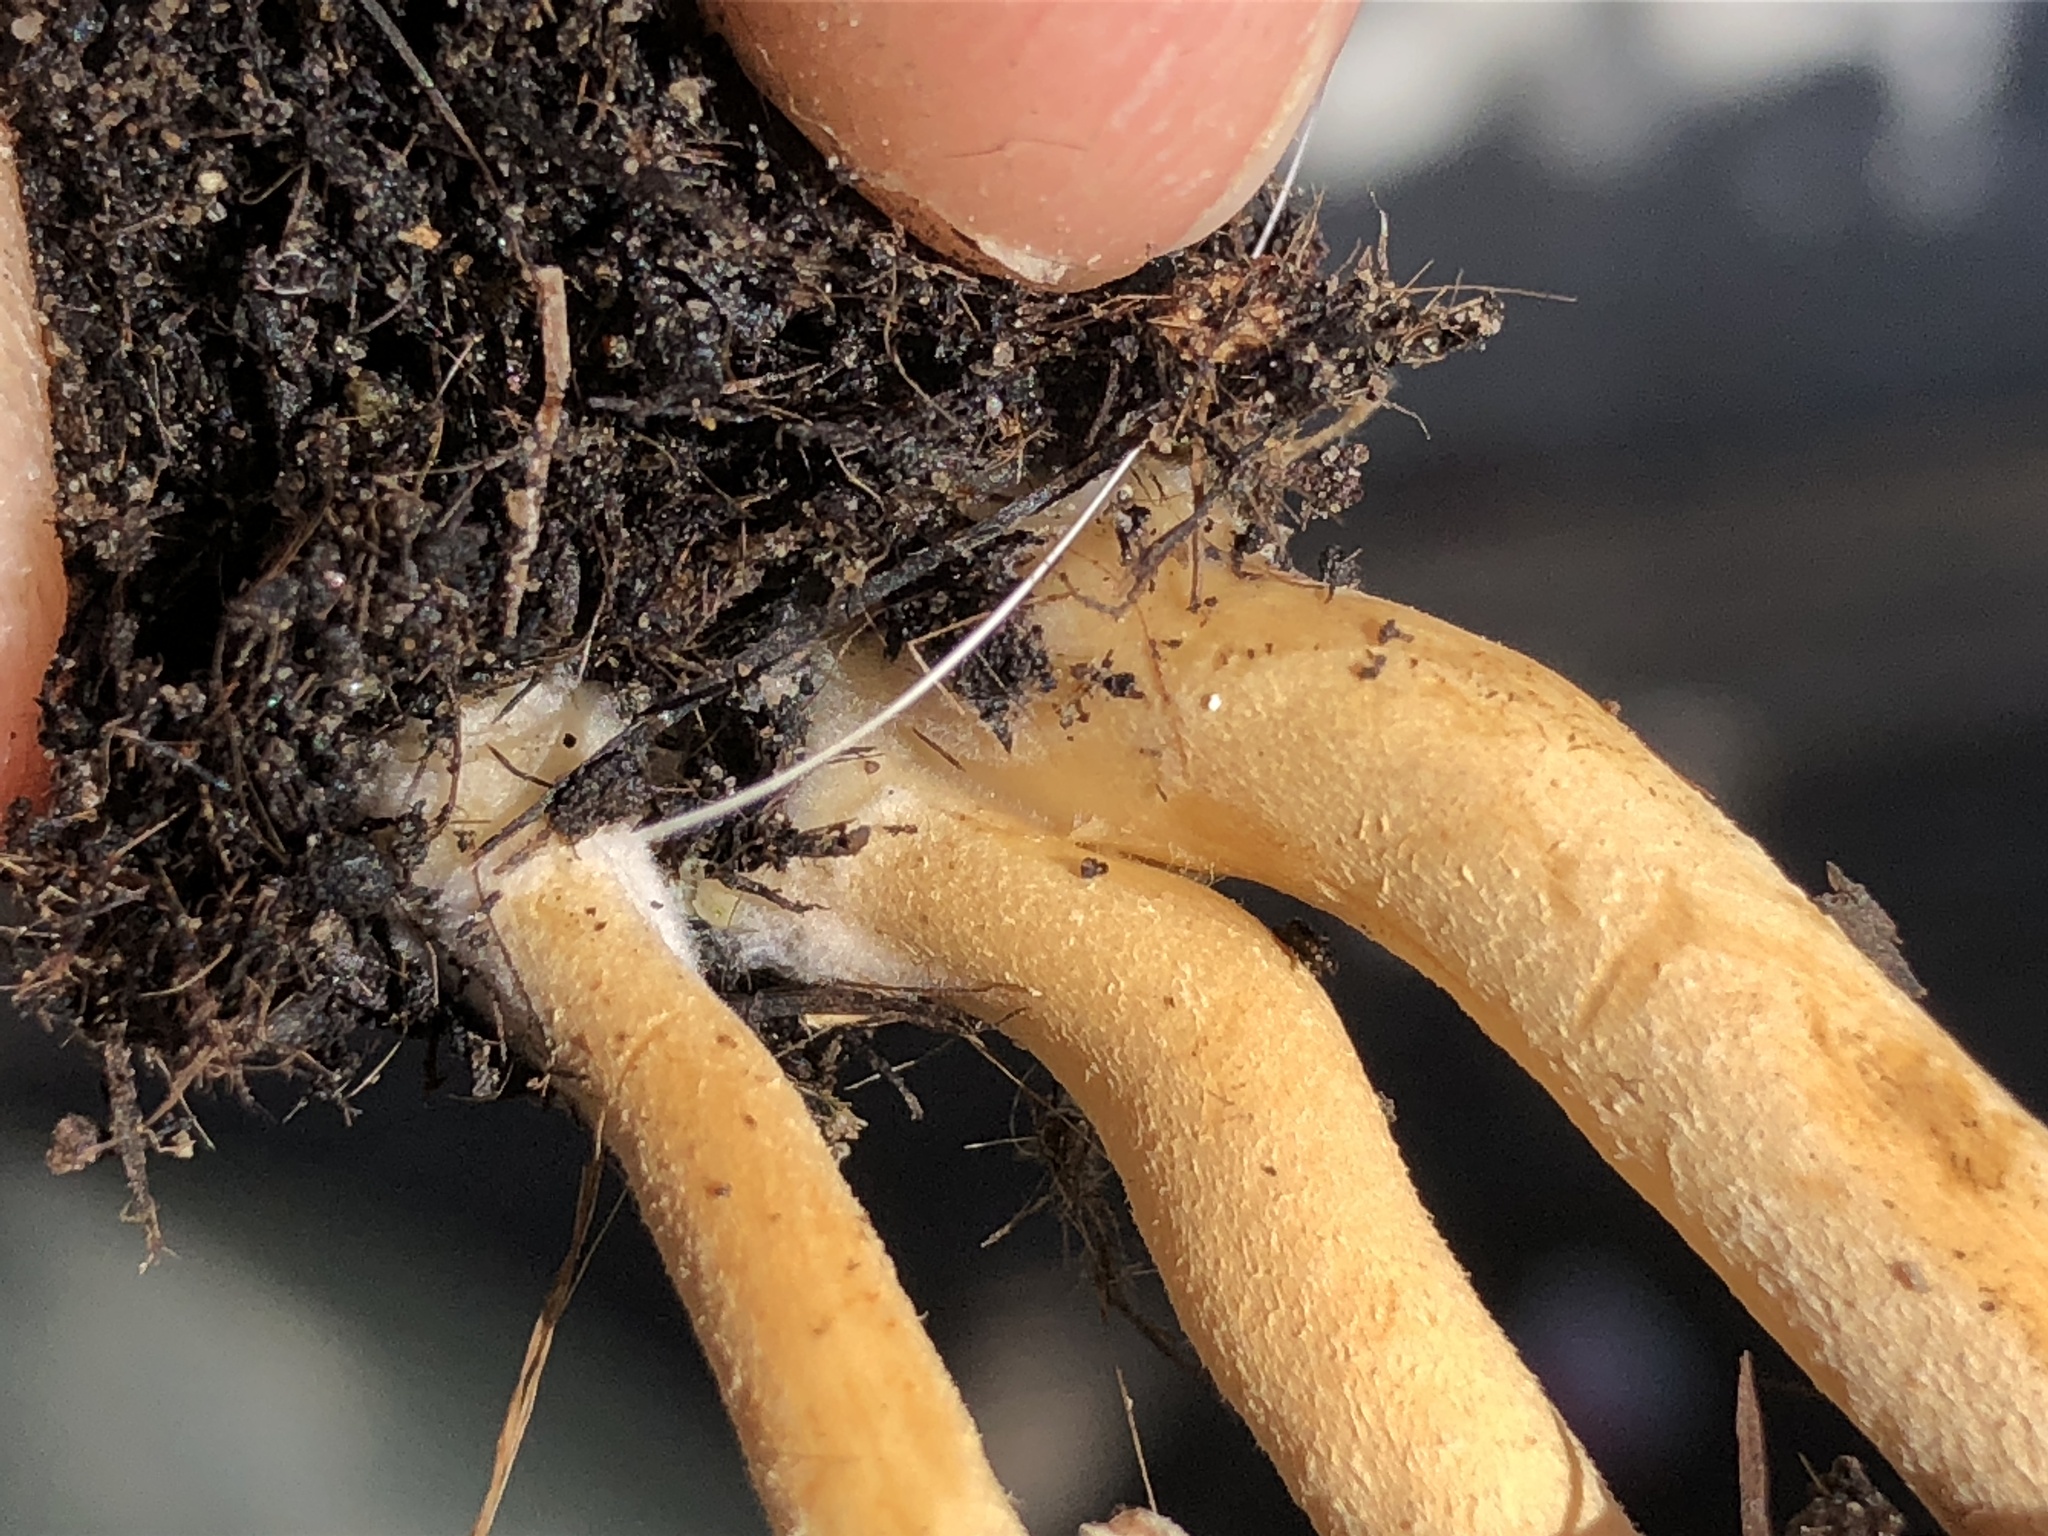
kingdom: Fungi
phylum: Basidiomycota
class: Agaricomycetes
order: Agaricales
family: Strophariaceae
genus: Agrocybe
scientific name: Agrocybe pediades
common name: Common fieldcap
